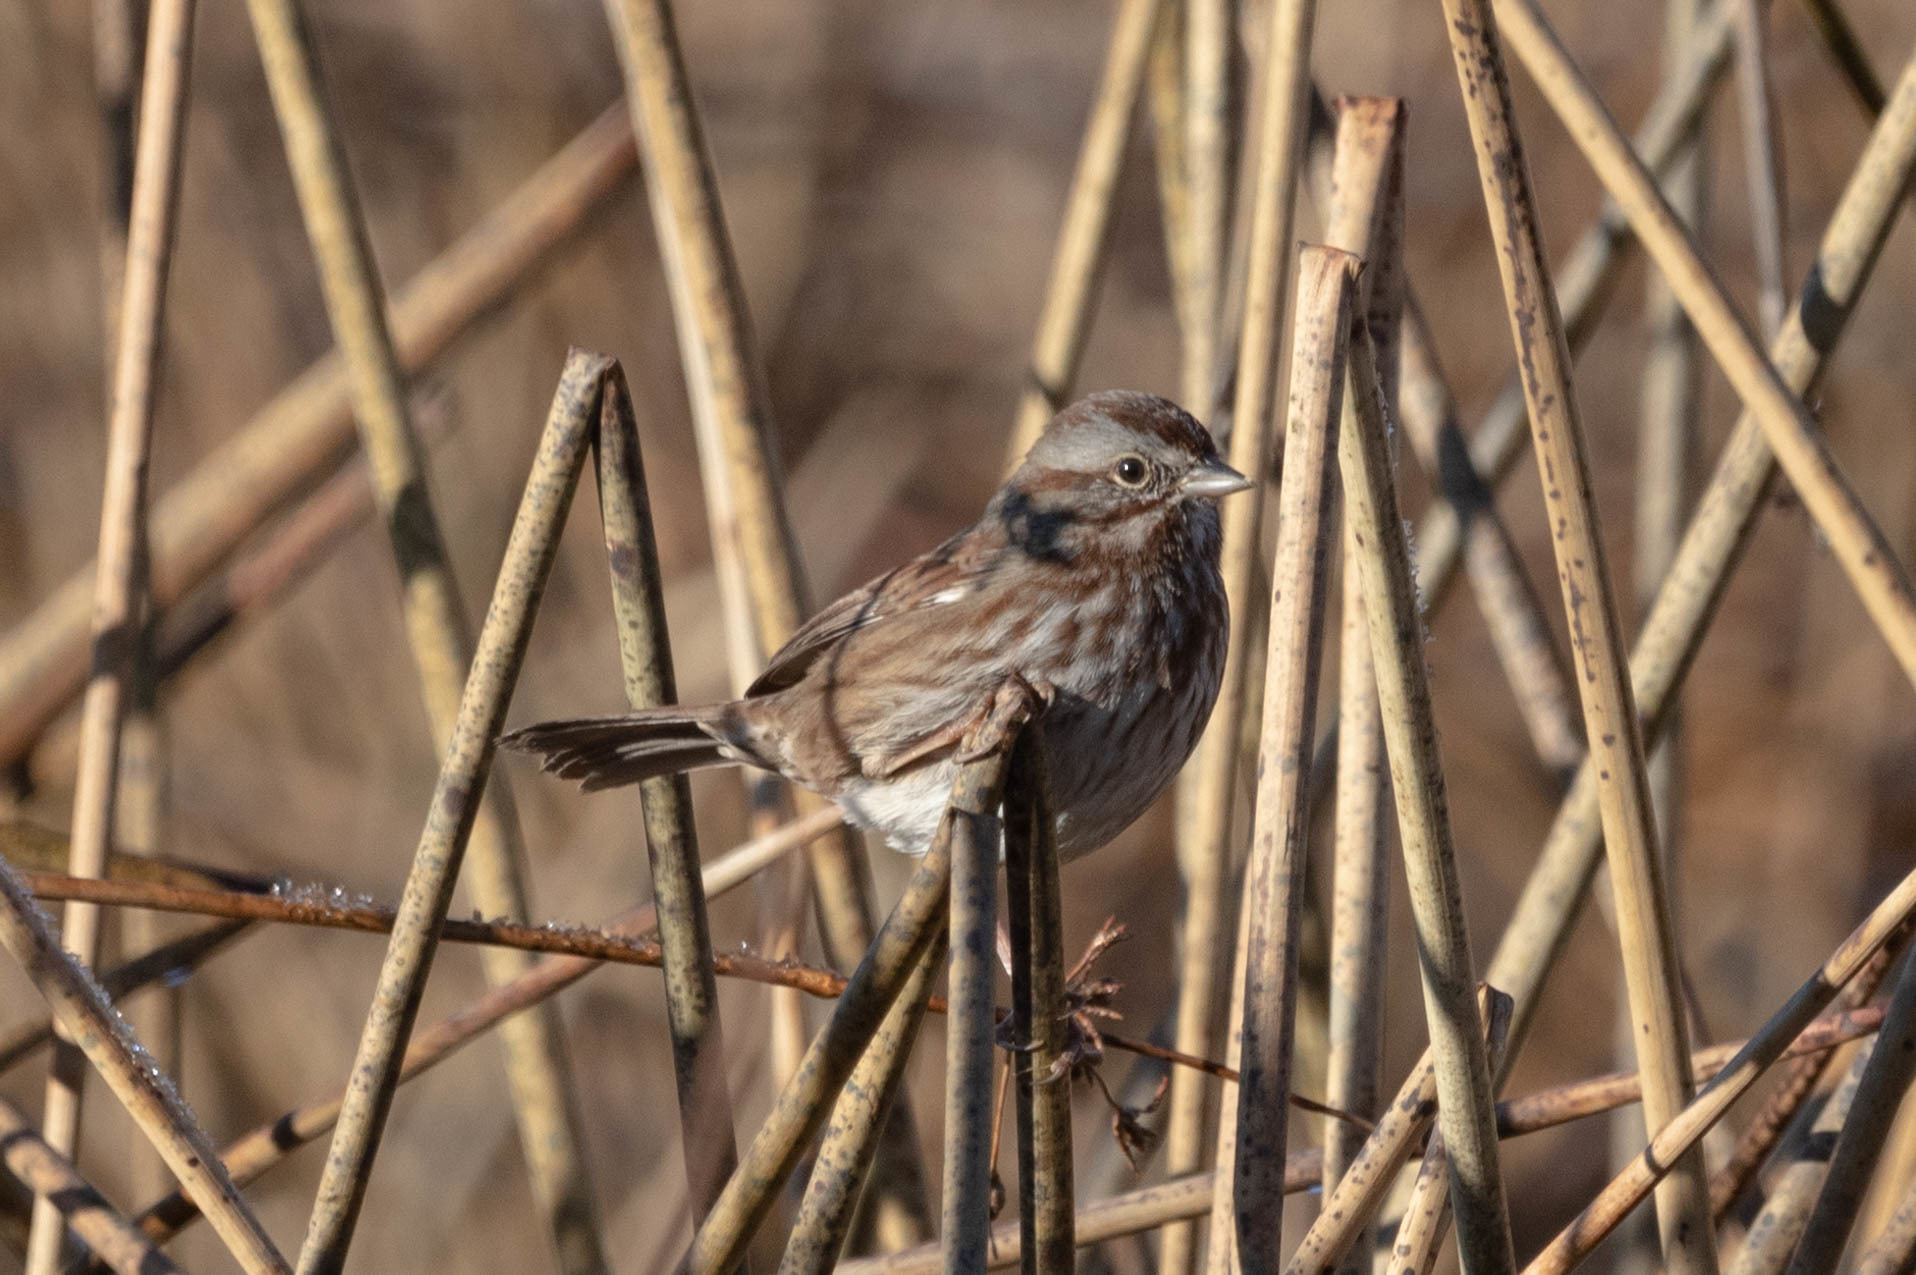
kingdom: Animalia
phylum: Chordata
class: Aves
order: Passeriformes
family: Passerellidae
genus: Melospiza
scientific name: Melospiza melodia
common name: Song sparrow
